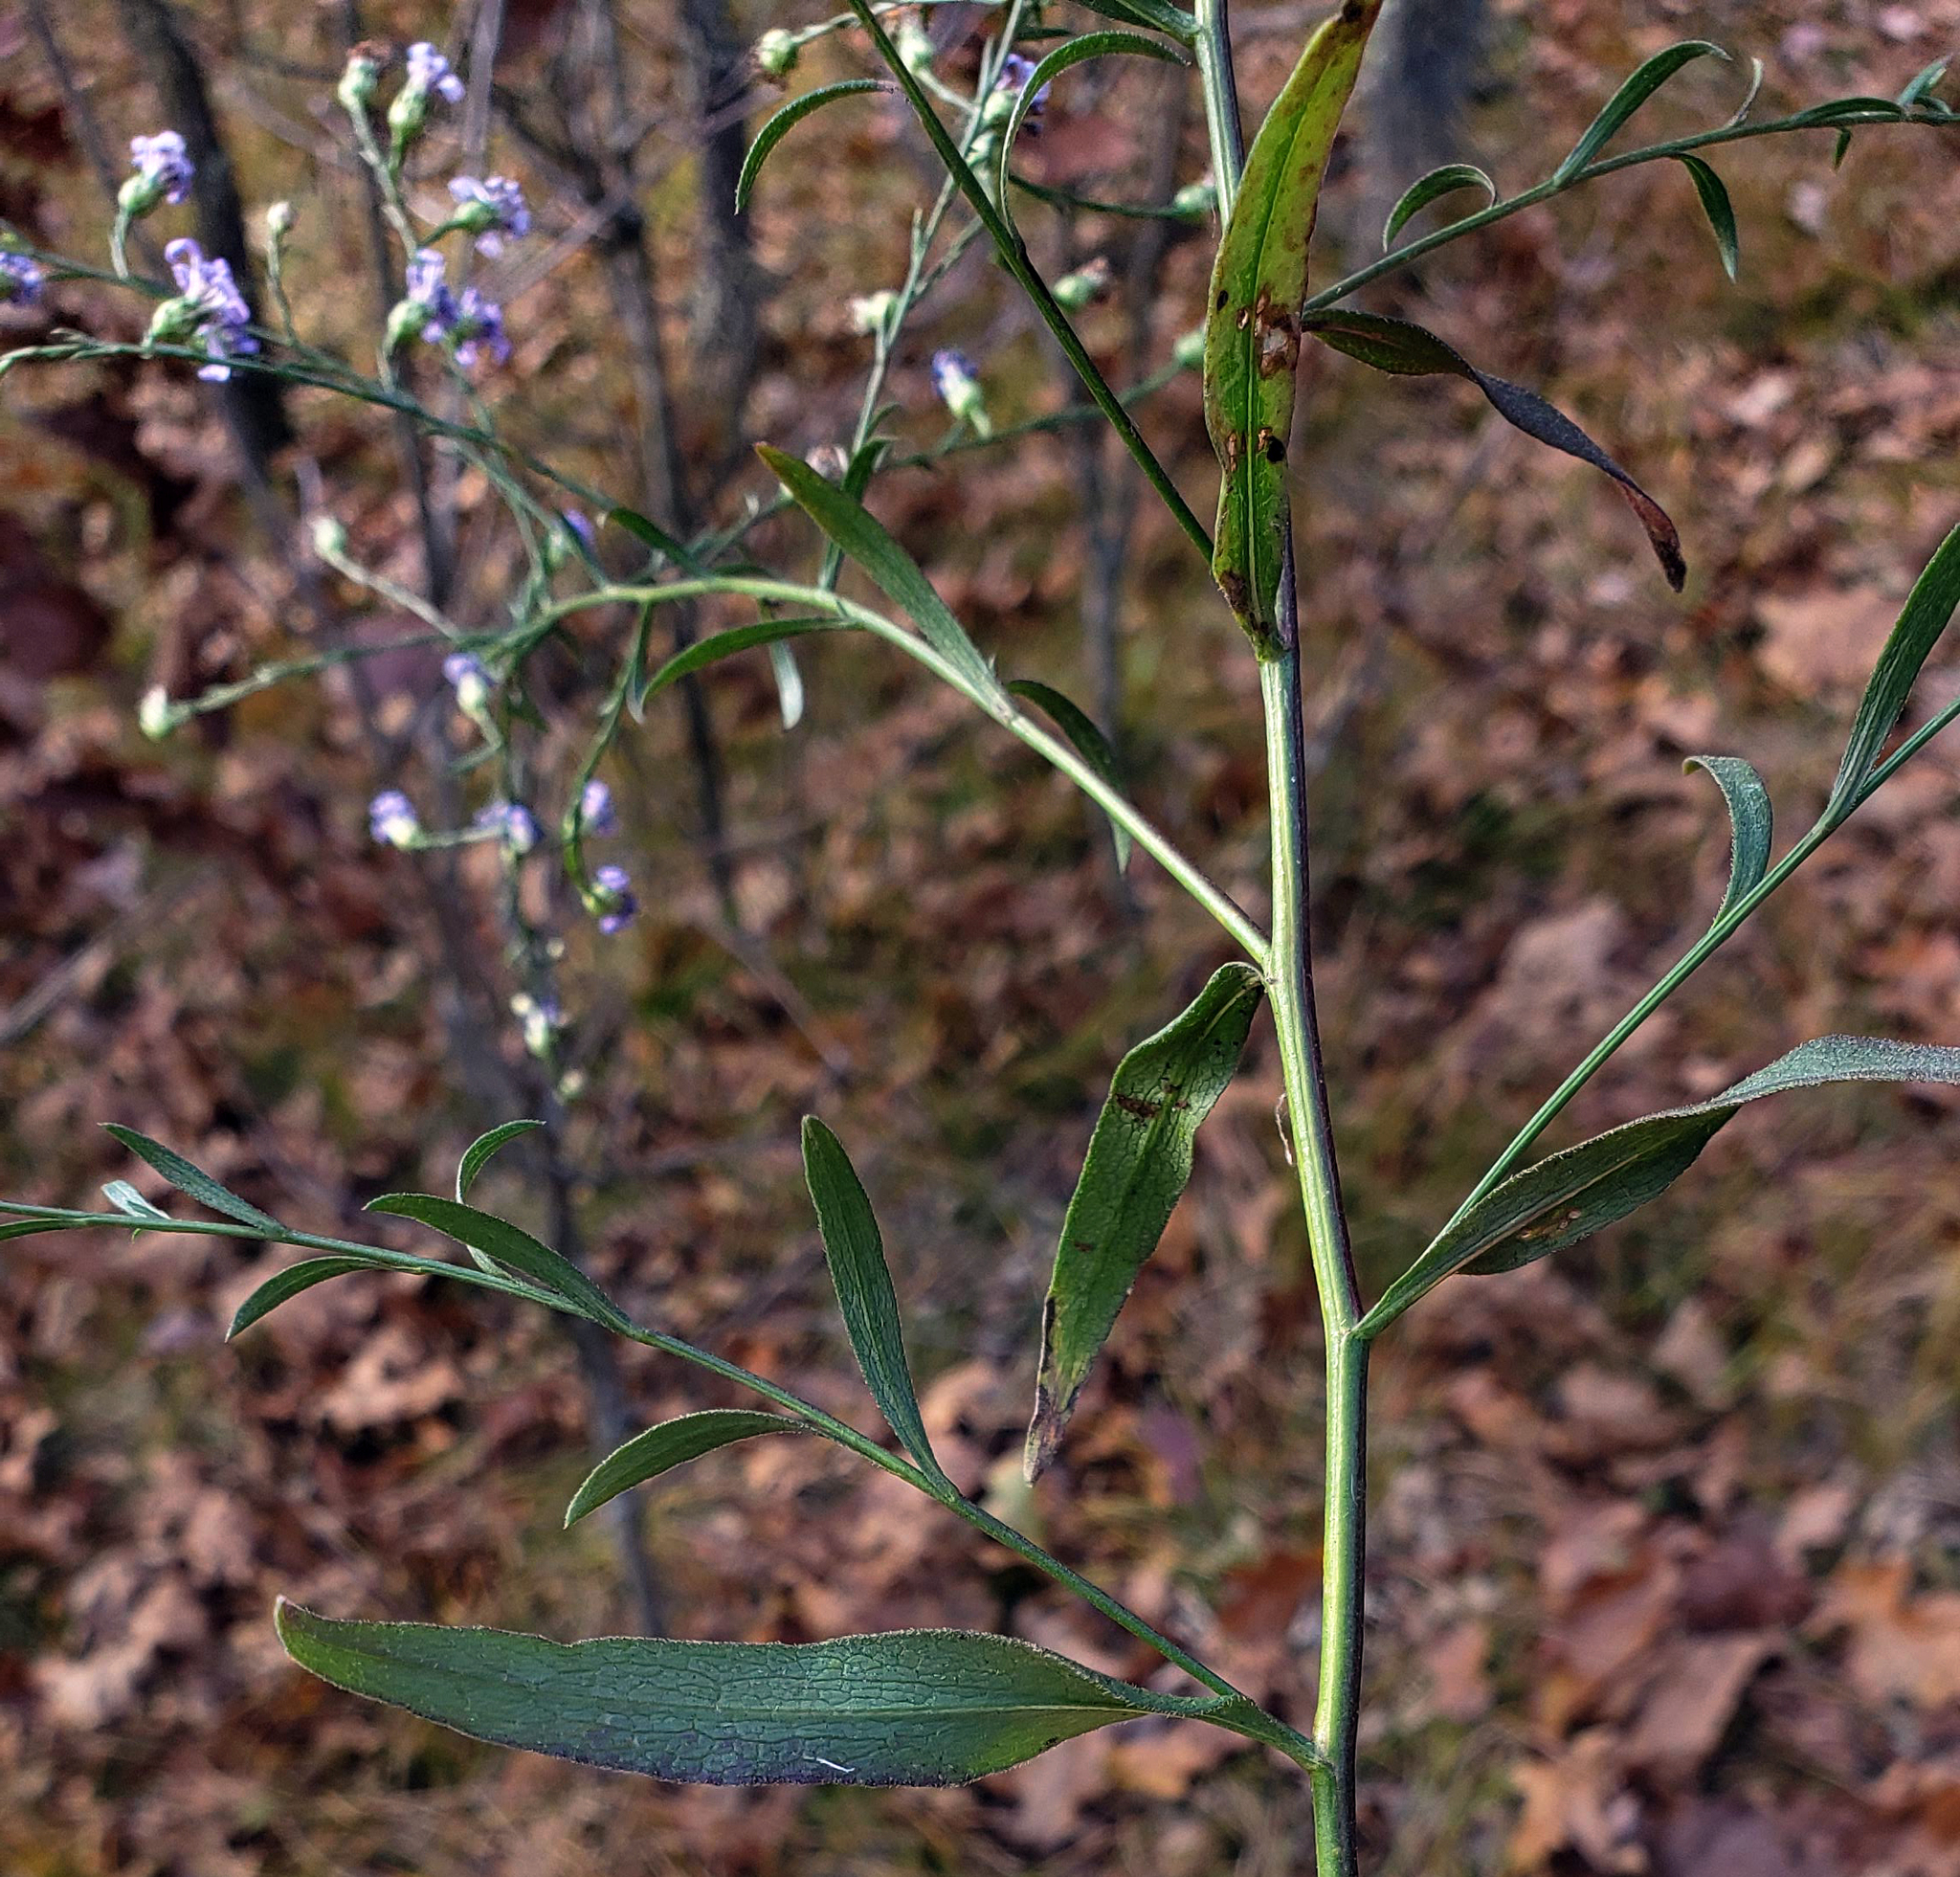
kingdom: Plantae
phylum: Tracheophyta
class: Magnoliopsida
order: Asterales
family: Asteraceae
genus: Symphyotrichum
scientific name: Symphyotrichum oolentangiense
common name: Azure aster
